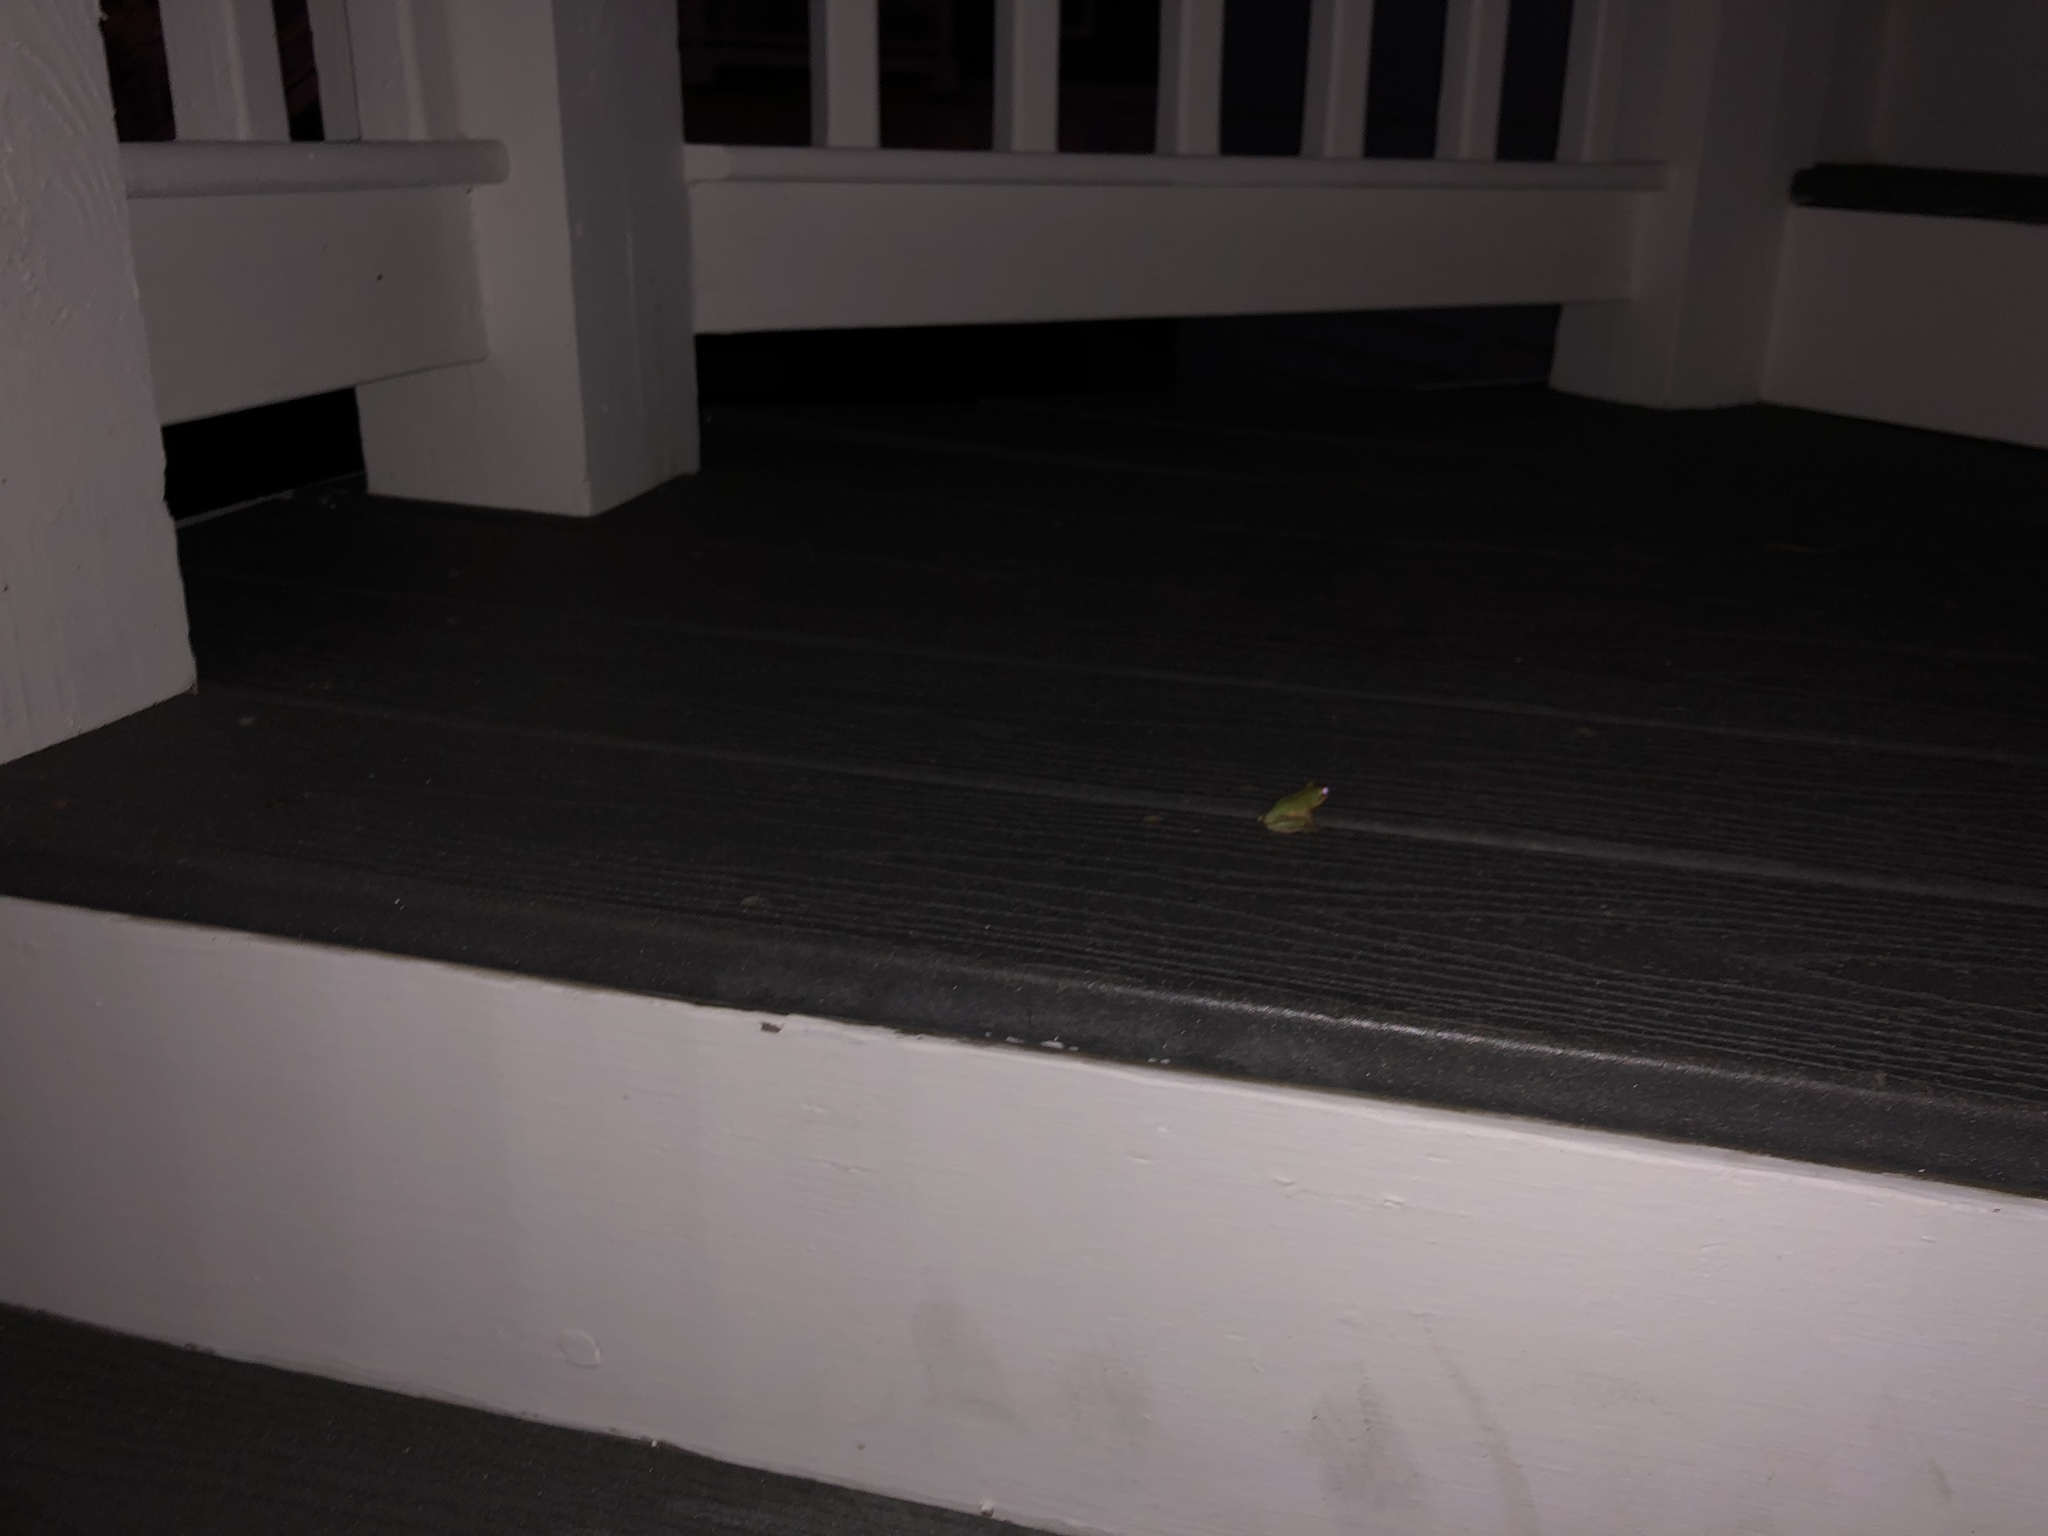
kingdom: Animalia
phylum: Chordata
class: Amphibia
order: Anura
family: Hylidae
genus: Dryophytes
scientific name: Dryophytes squirellus
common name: Squirrel treefrog
